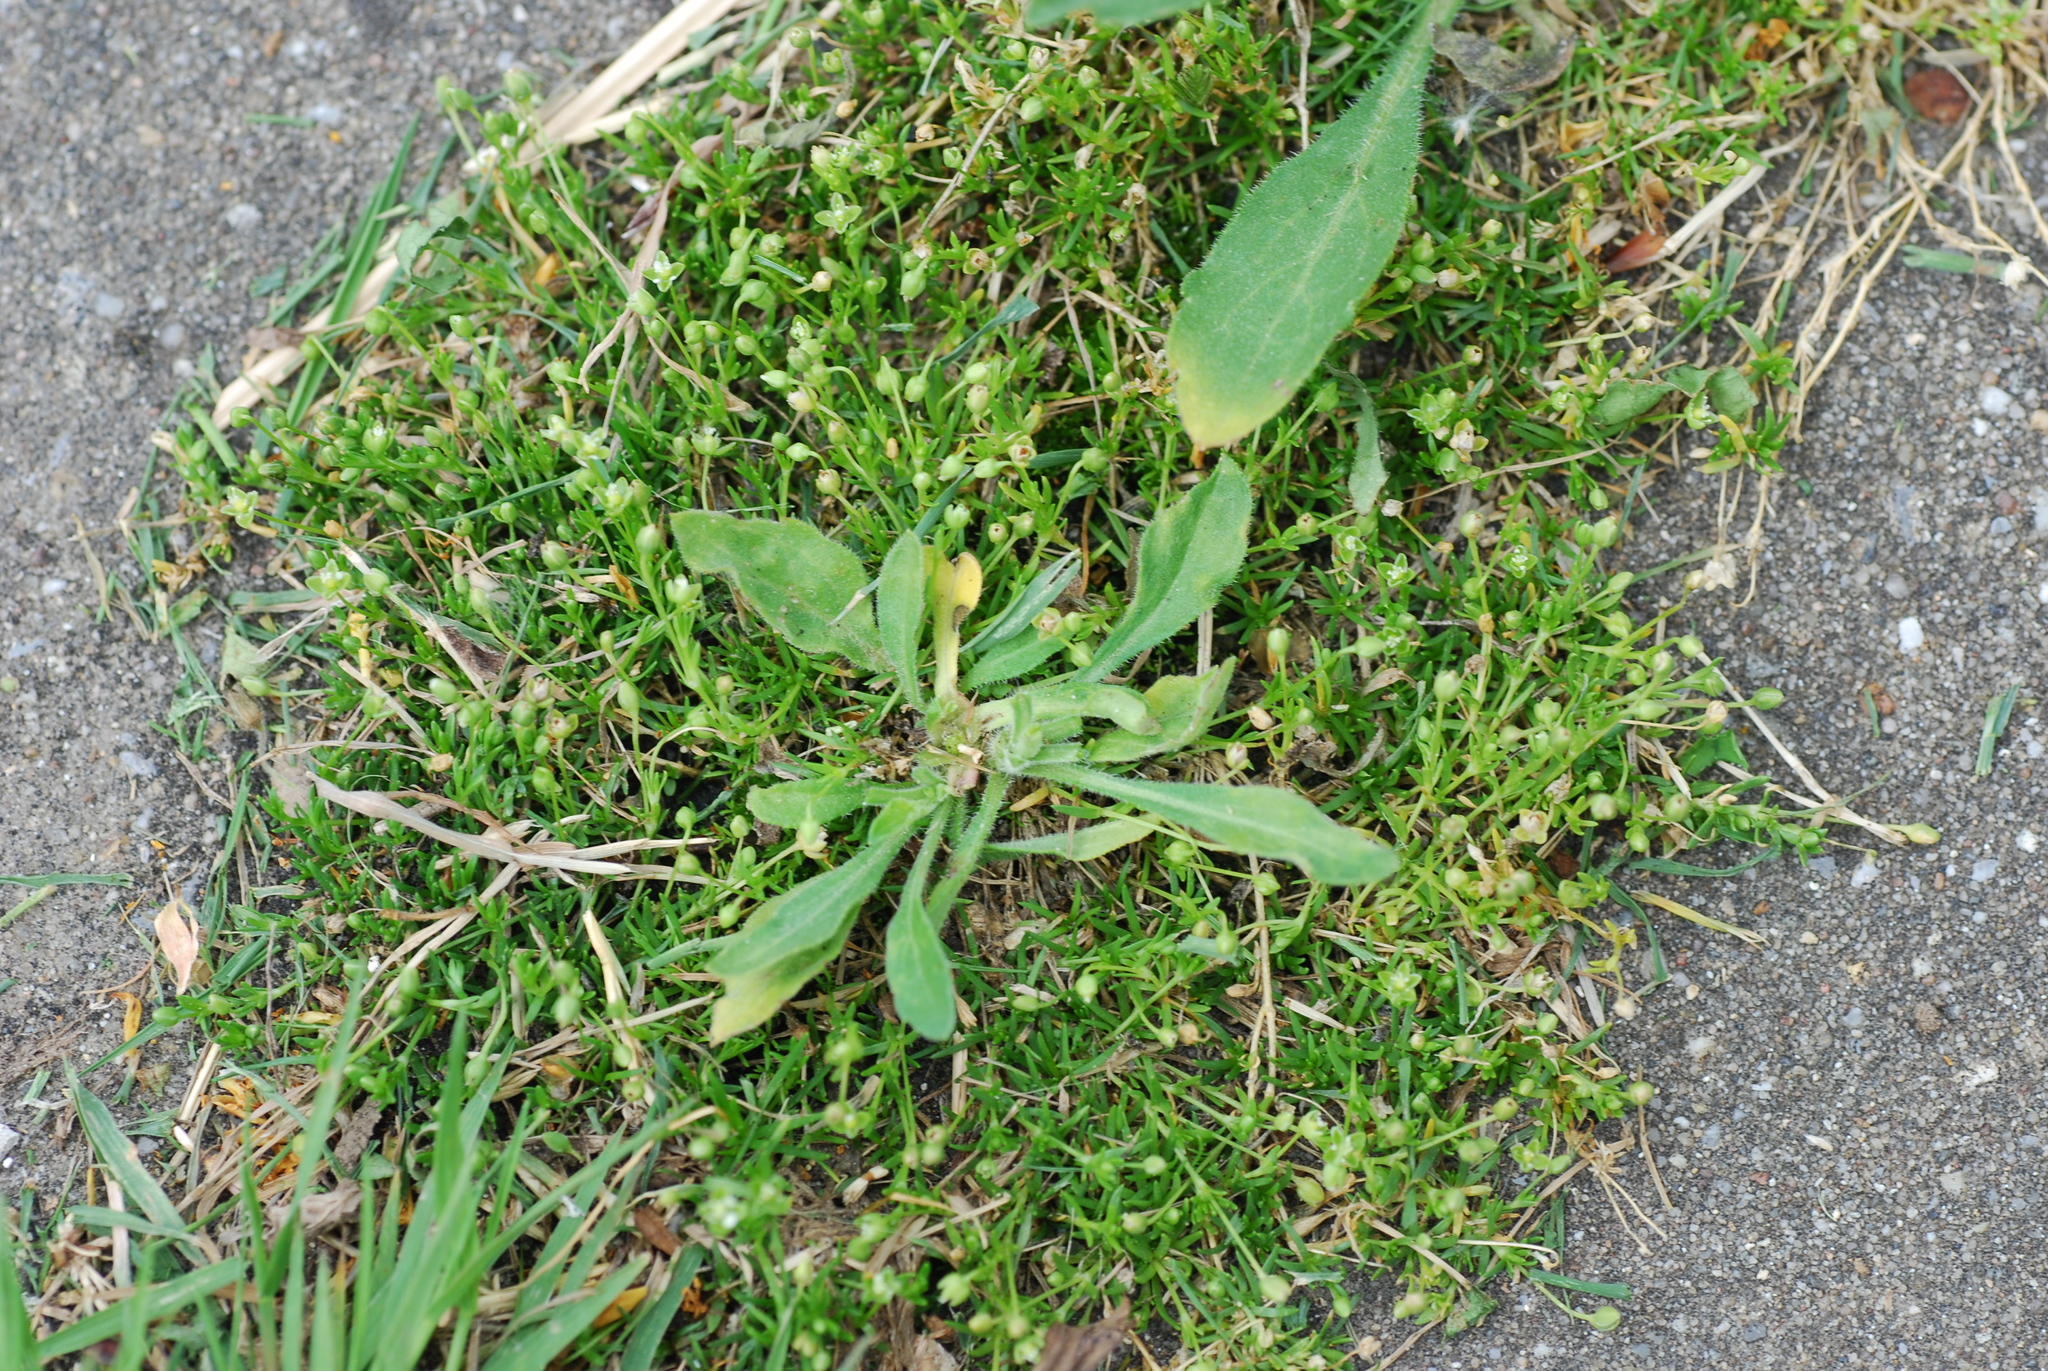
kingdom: Plantae
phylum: Tracheophyta
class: Magnoliopsida
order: Caryophyllales
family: Caryophyllaceae
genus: Sagina
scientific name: Sagina procumbens
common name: Procumbent pearlwort
